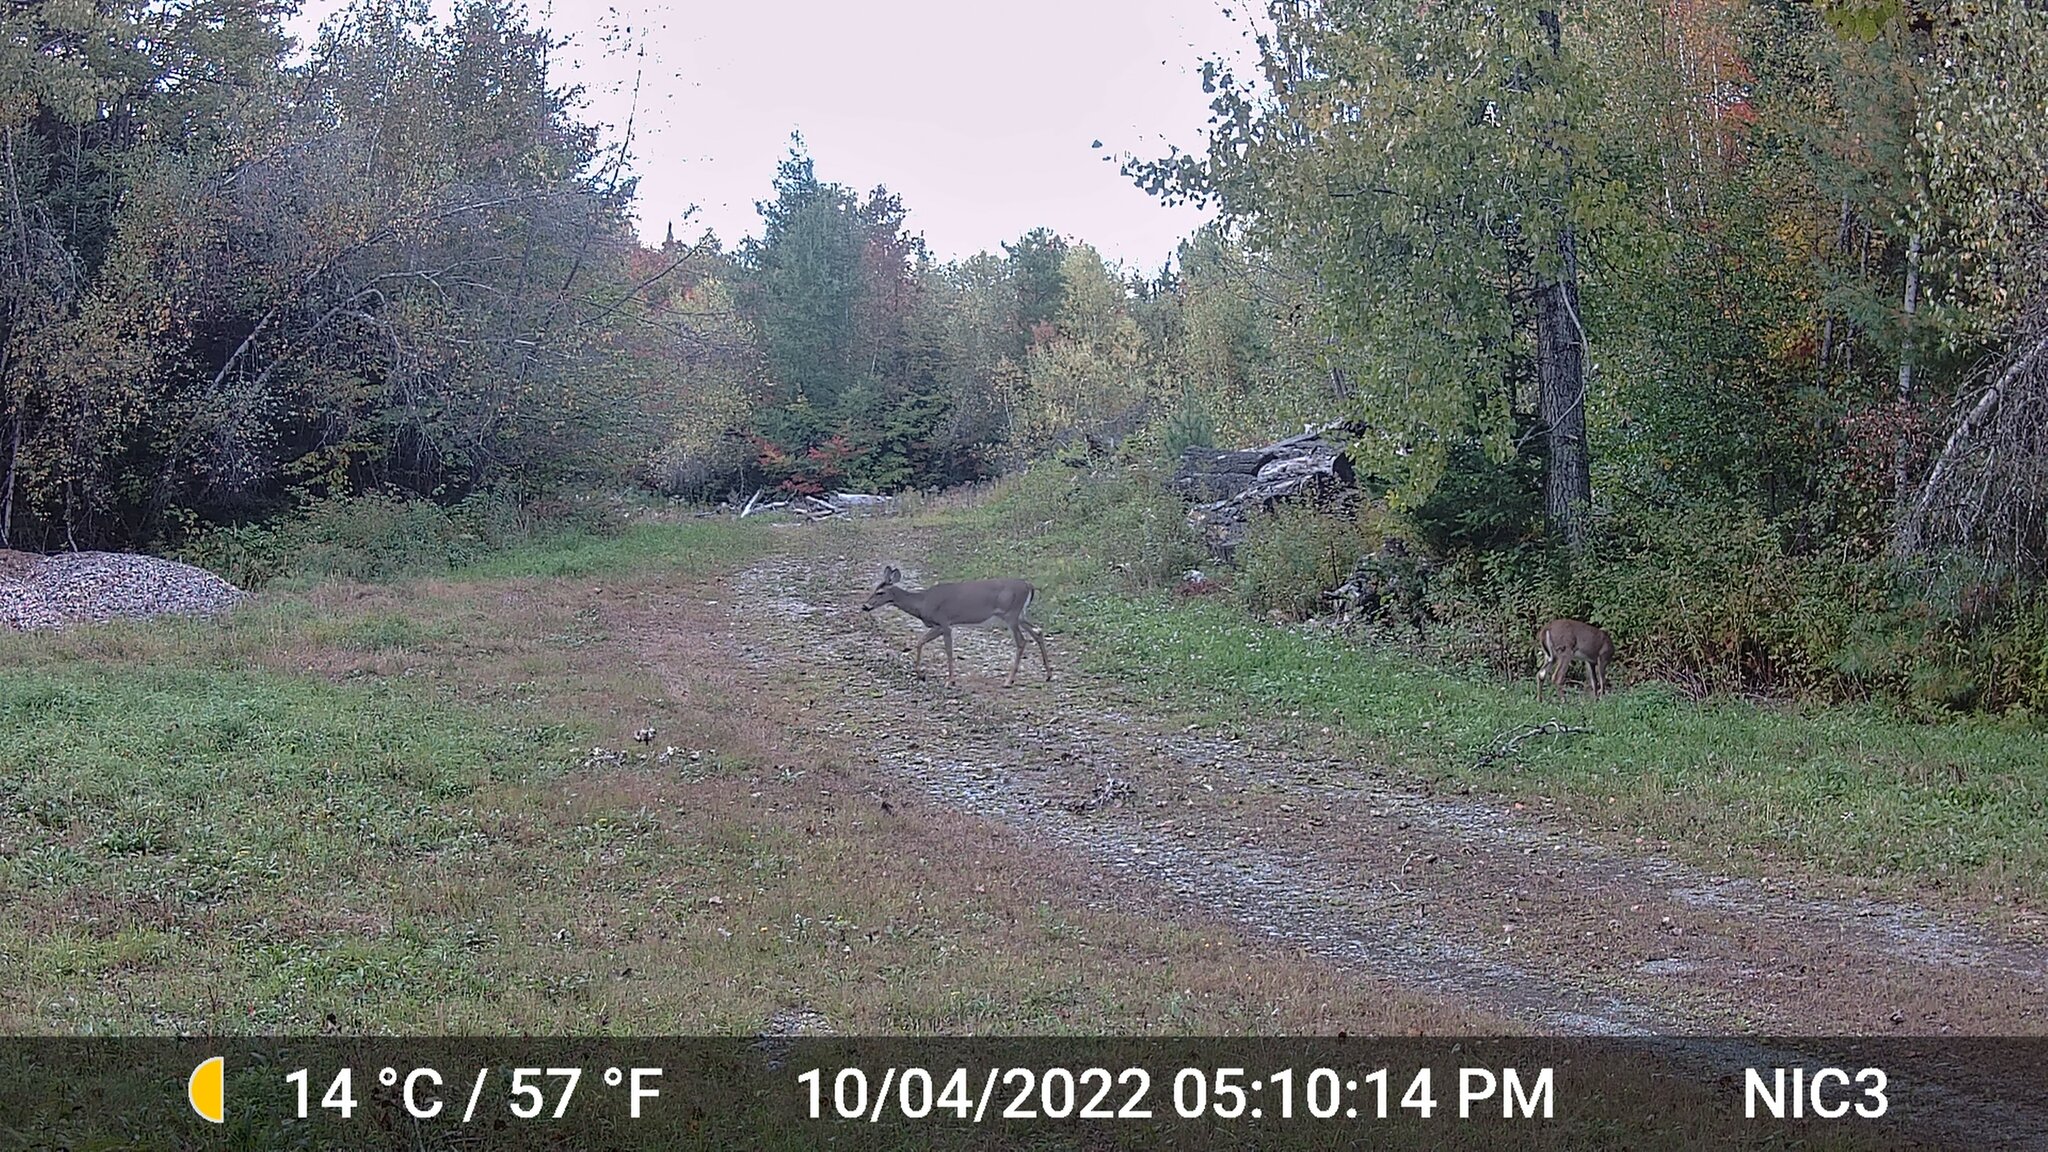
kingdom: Animalia
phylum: Chordata
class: Mammalia
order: Artiodactyla
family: Cervidae
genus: Odocoileus
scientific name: Odocoileus virginianus
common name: White-tailed deer
